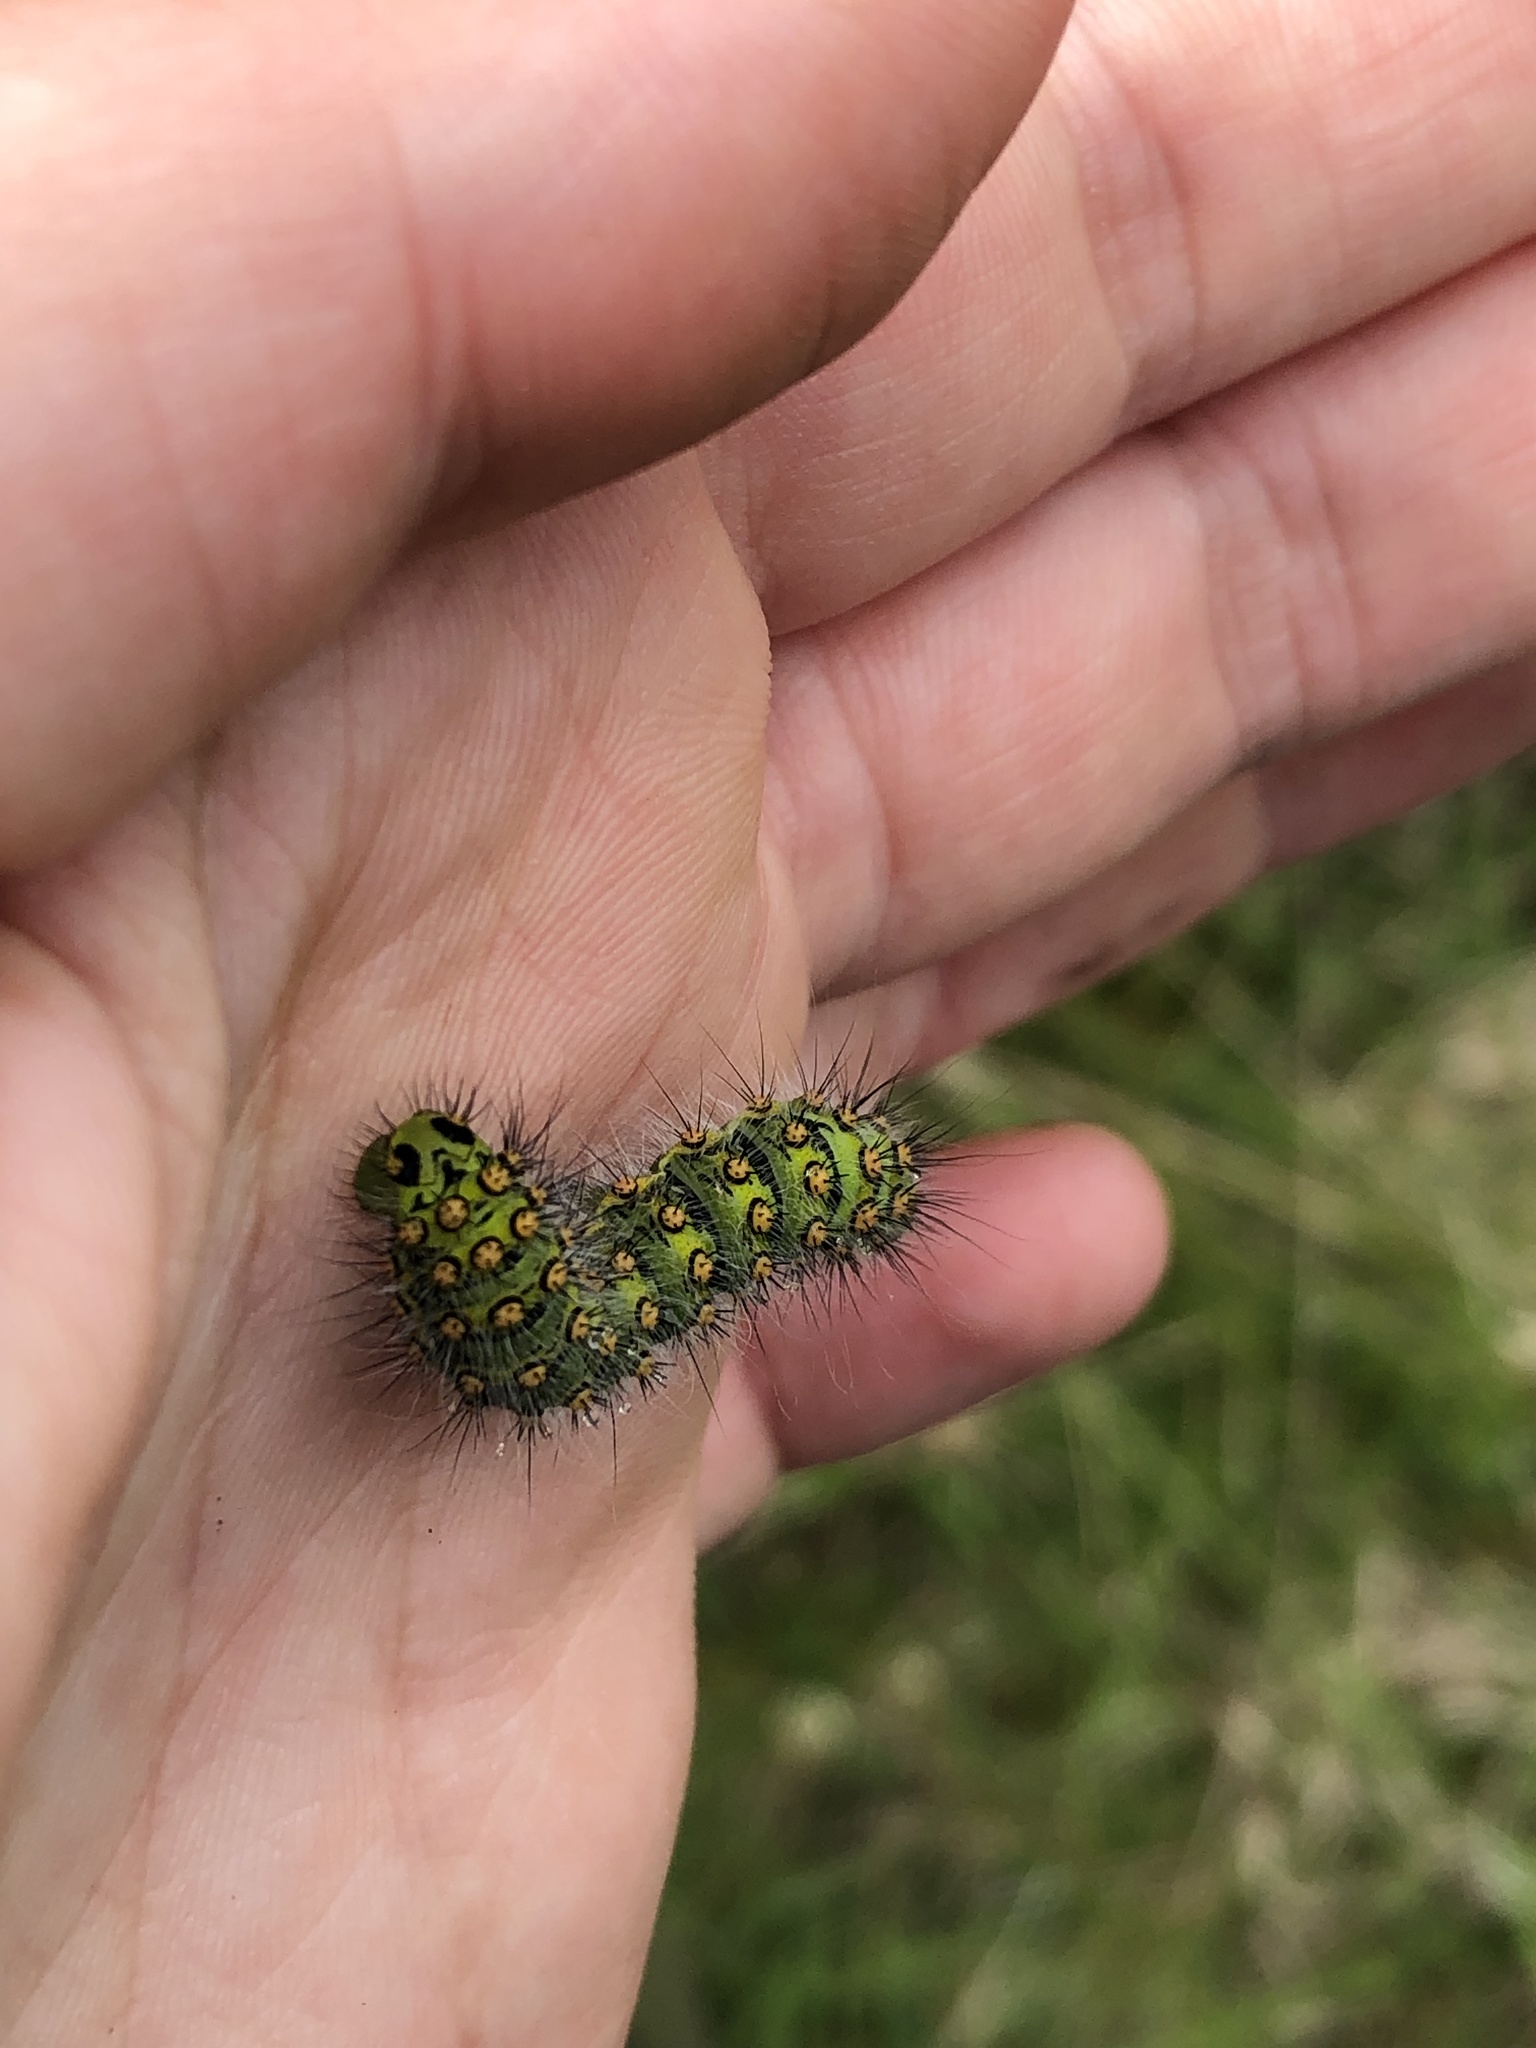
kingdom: Animalia
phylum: Arthropoda
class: Insecta
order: Lepidoptera
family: Saturniidae
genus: Saturnia
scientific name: Saturnia pavonia
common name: Emperor moth
